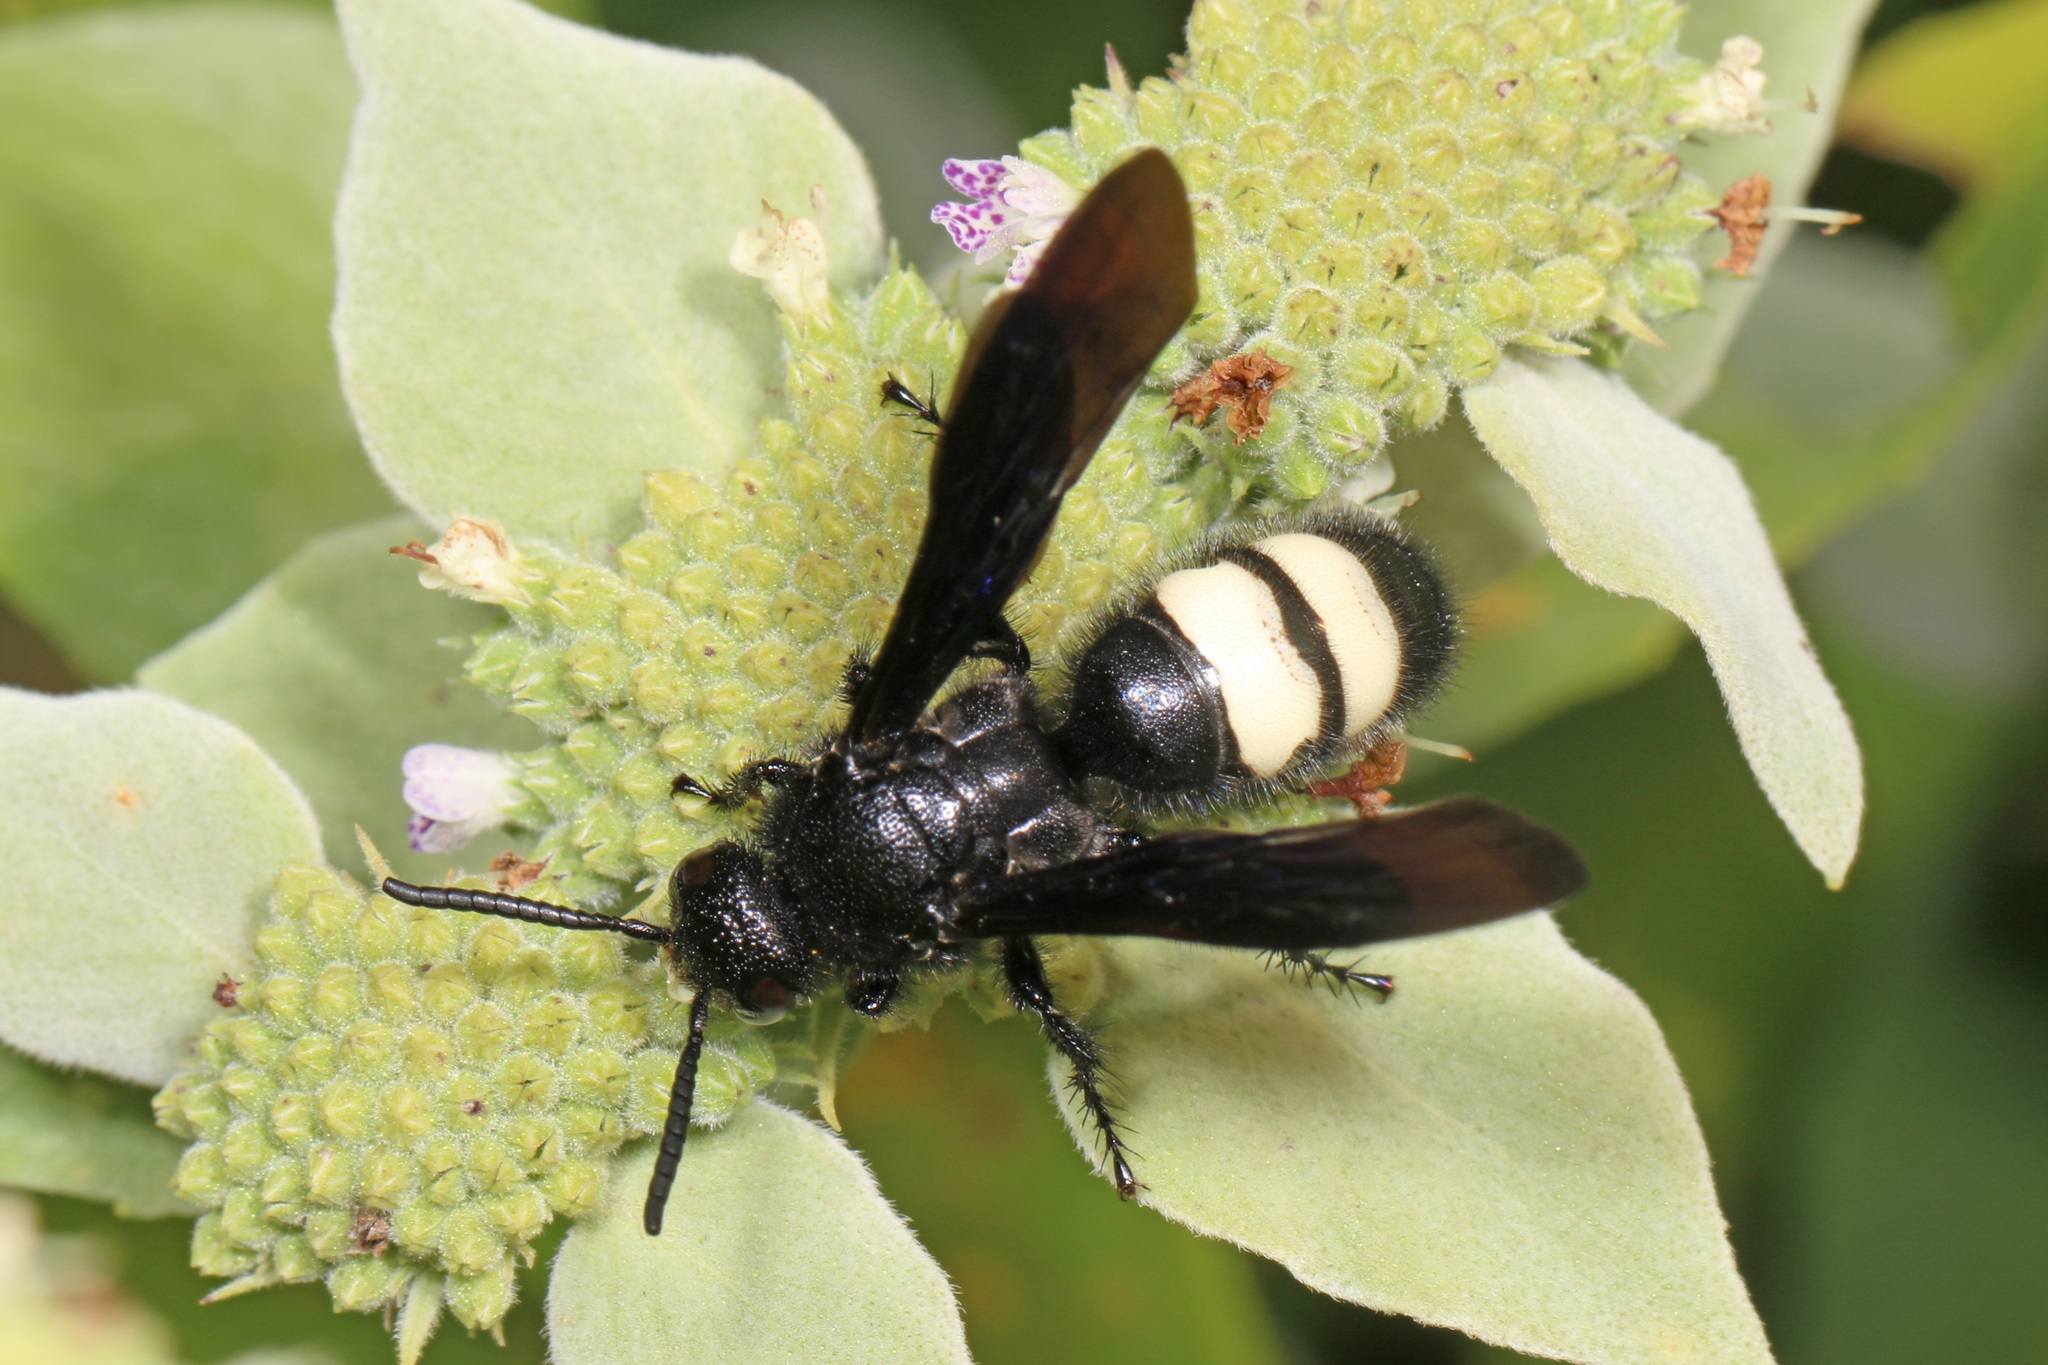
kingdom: Animalia
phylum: Arthropoda
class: Insecta
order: Hymenoptera
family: Scoliidae
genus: Scolia
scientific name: Scolia bicincta
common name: Double-banded scoliid wasp
